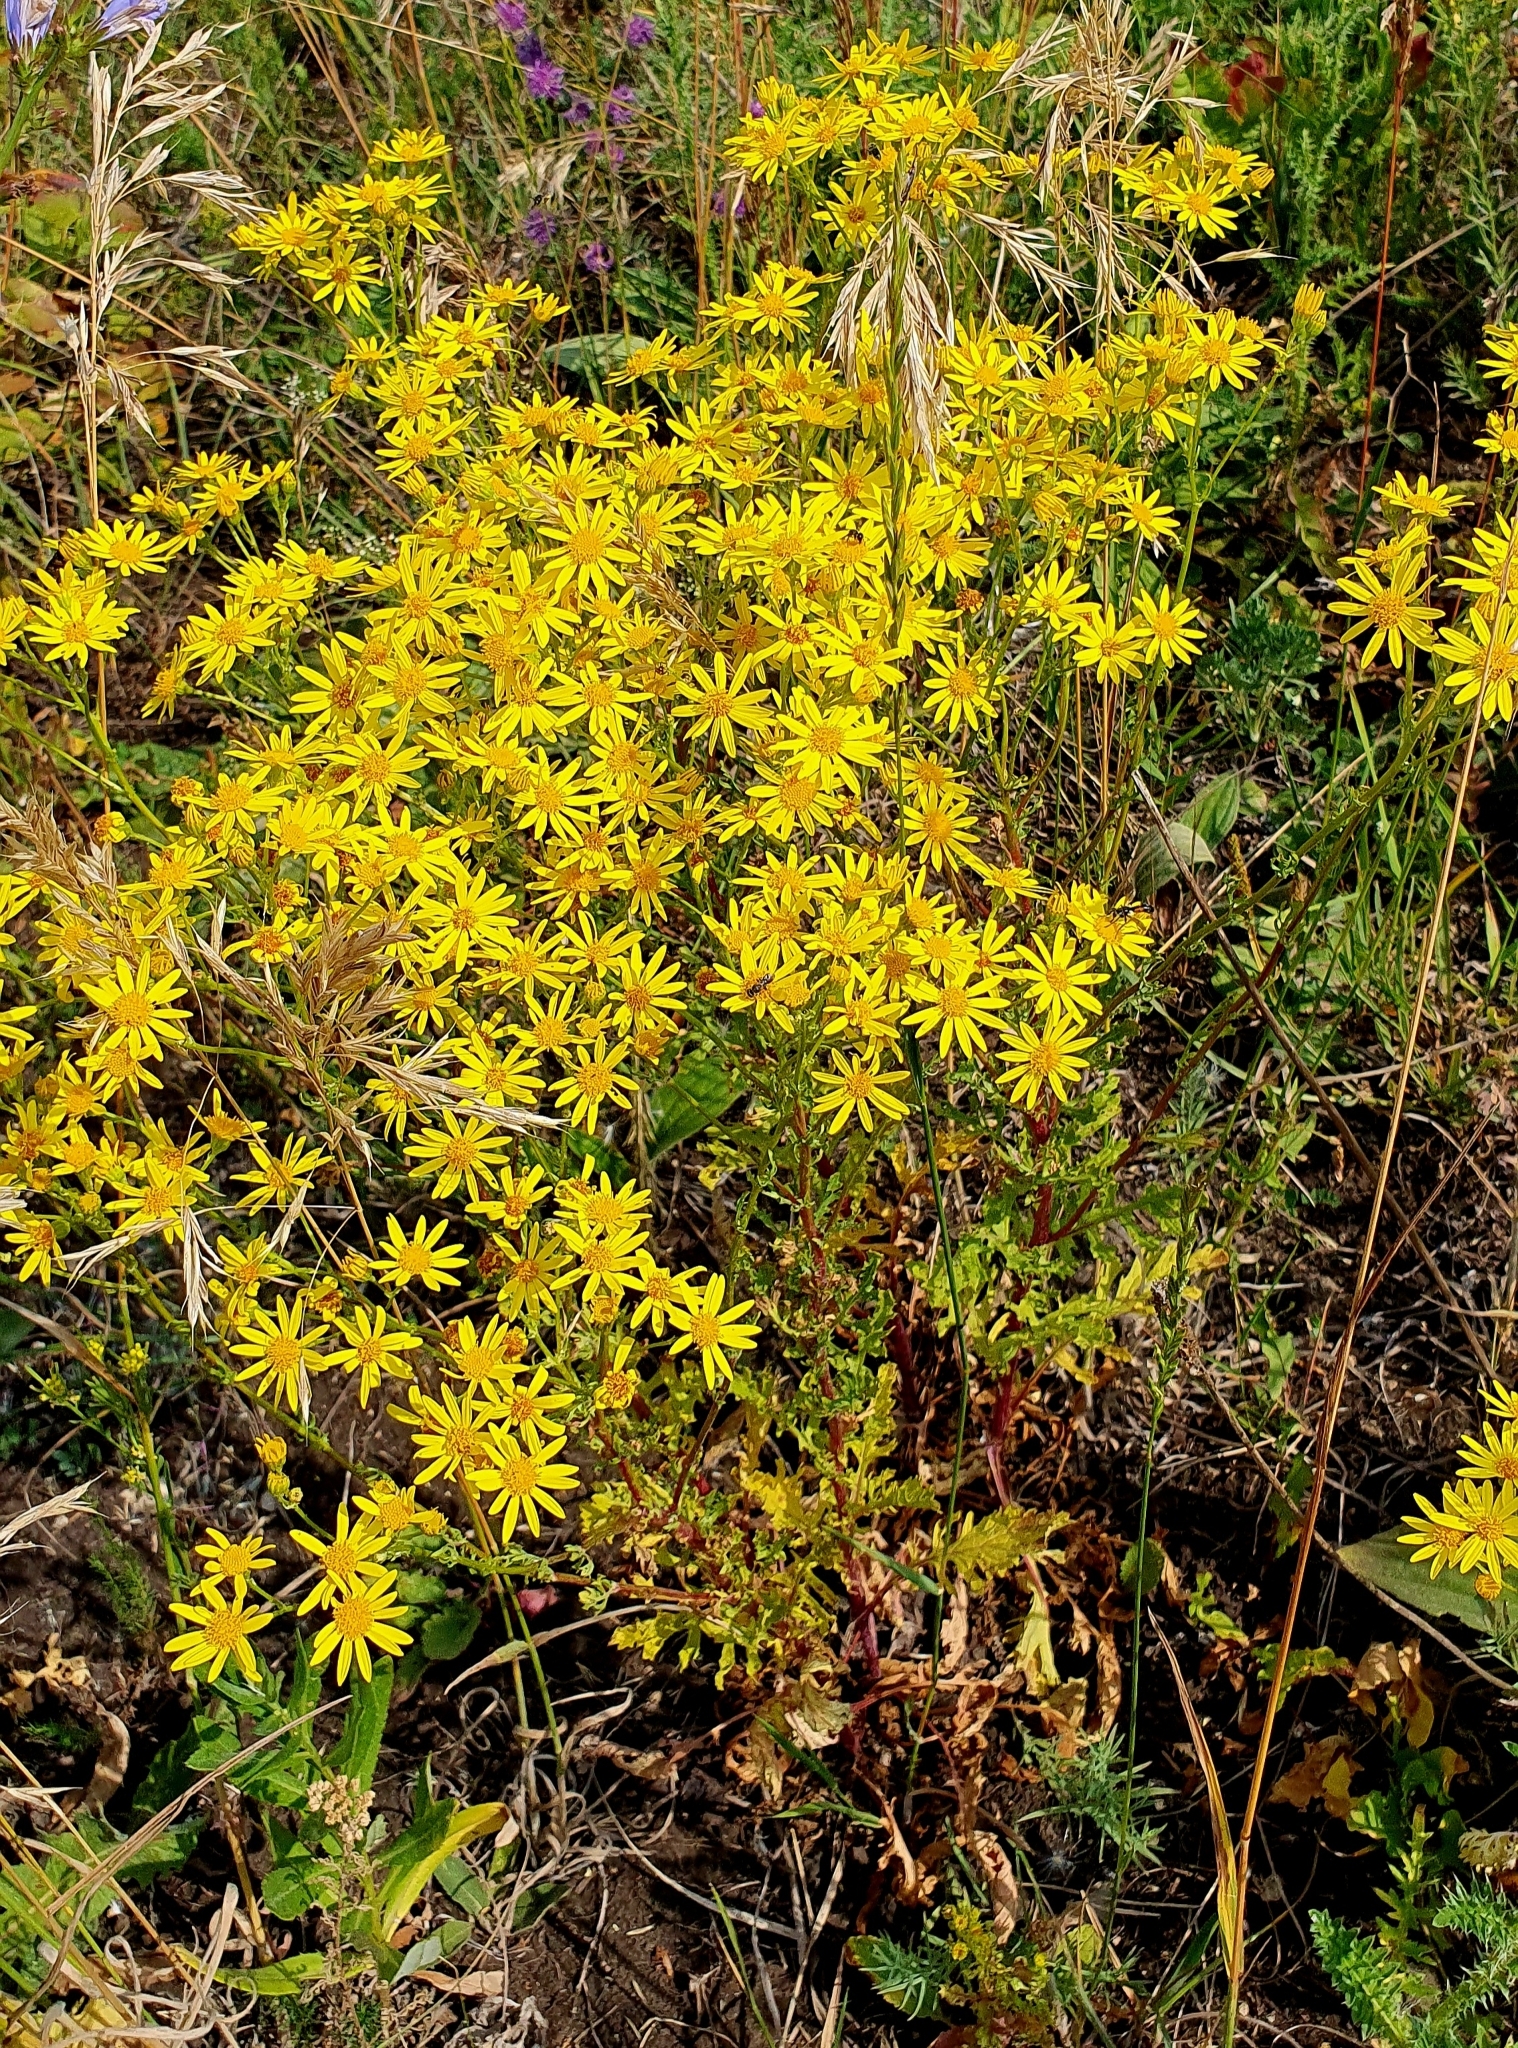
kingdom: Plantae
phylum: Tracheophyta
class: Magnoliopsida
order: Asterales
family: Asteraceae
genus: Jacobaea
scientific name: Jacobaea vulgaris
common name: Stinking willie
